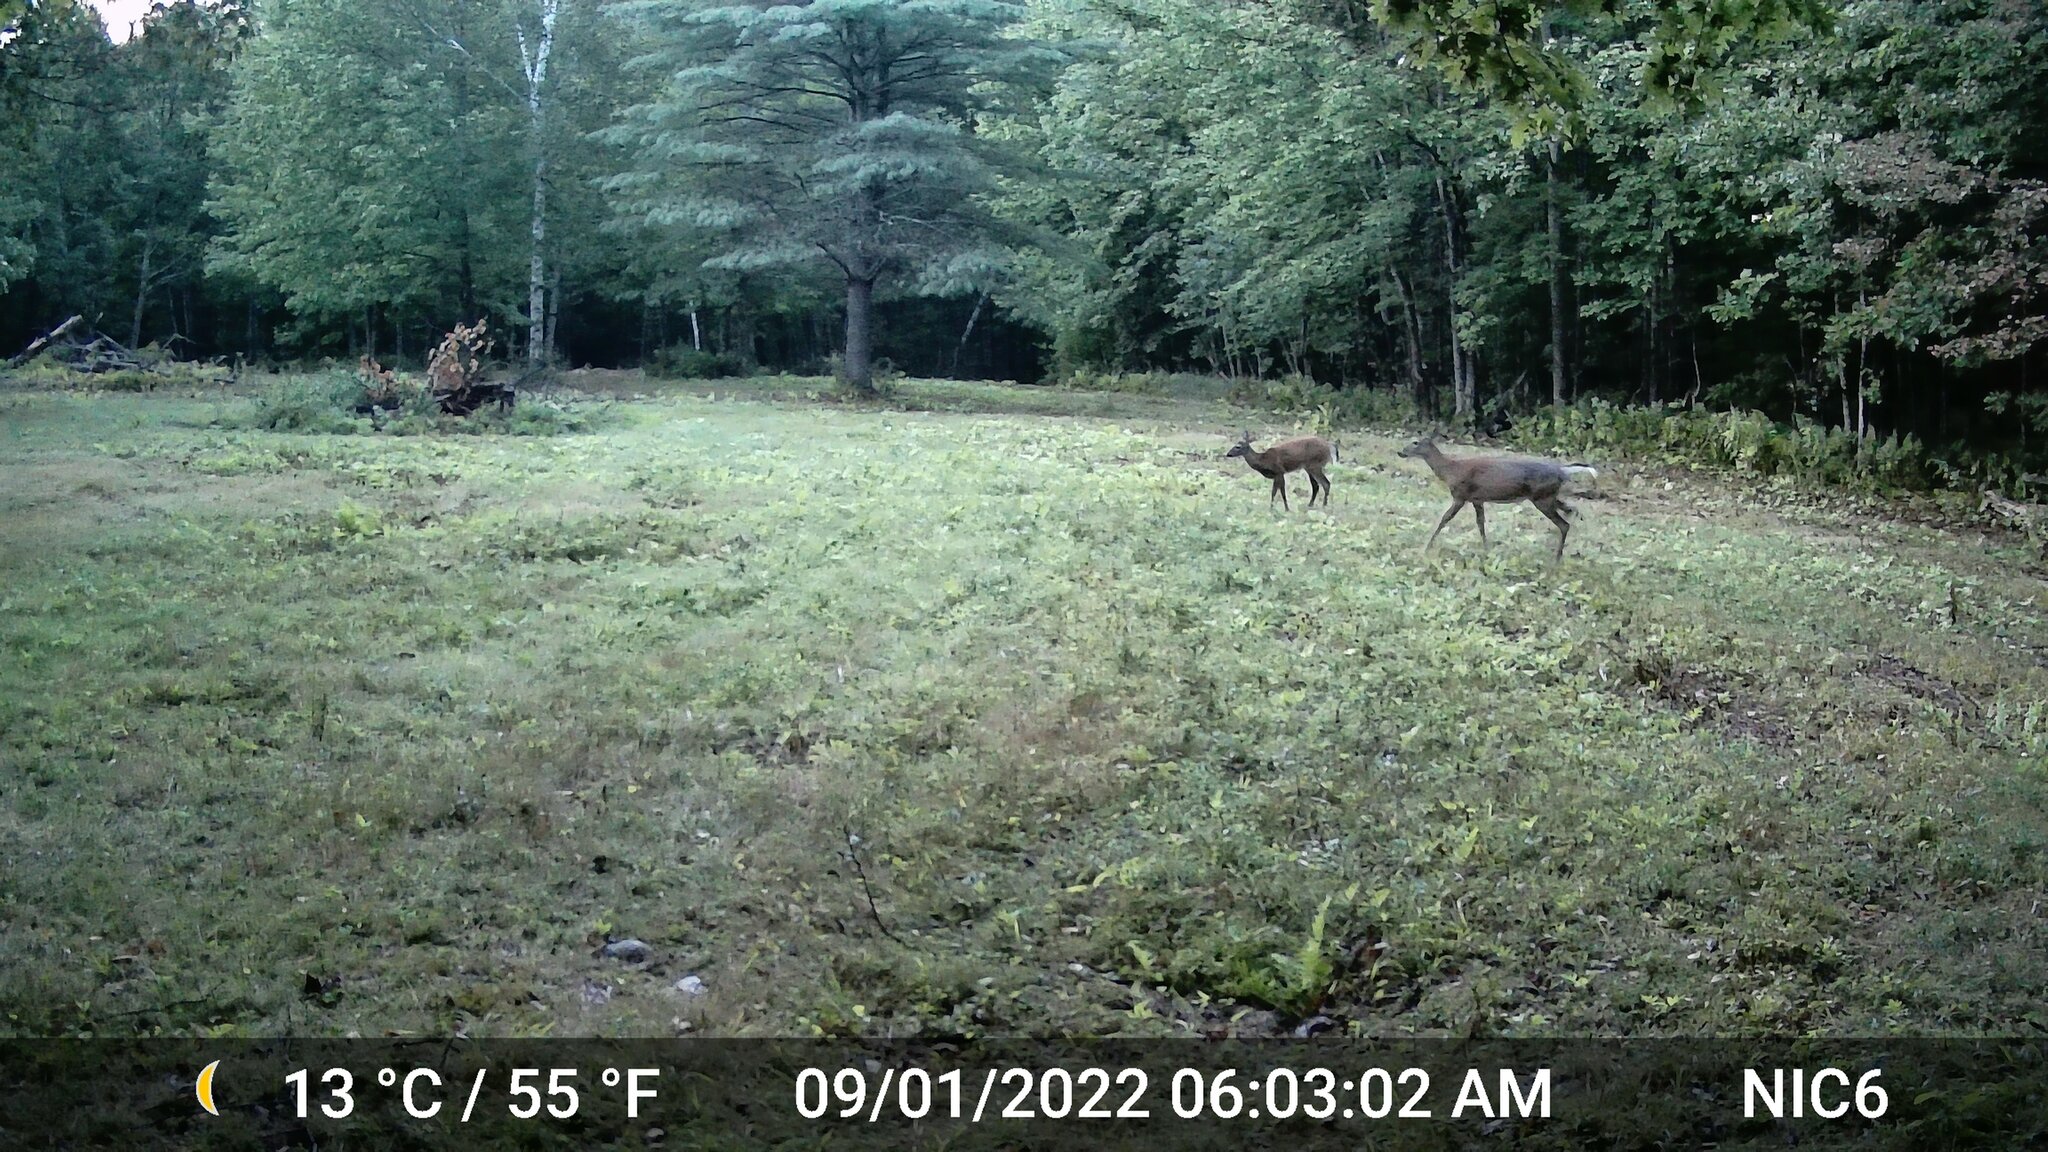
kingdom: Animalia
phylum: Chordata
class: Mammalia
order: Artiodactyla
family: Cervidae
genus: Odocoileus
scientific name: Odocoileus virginianus
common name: White-tailed deer
